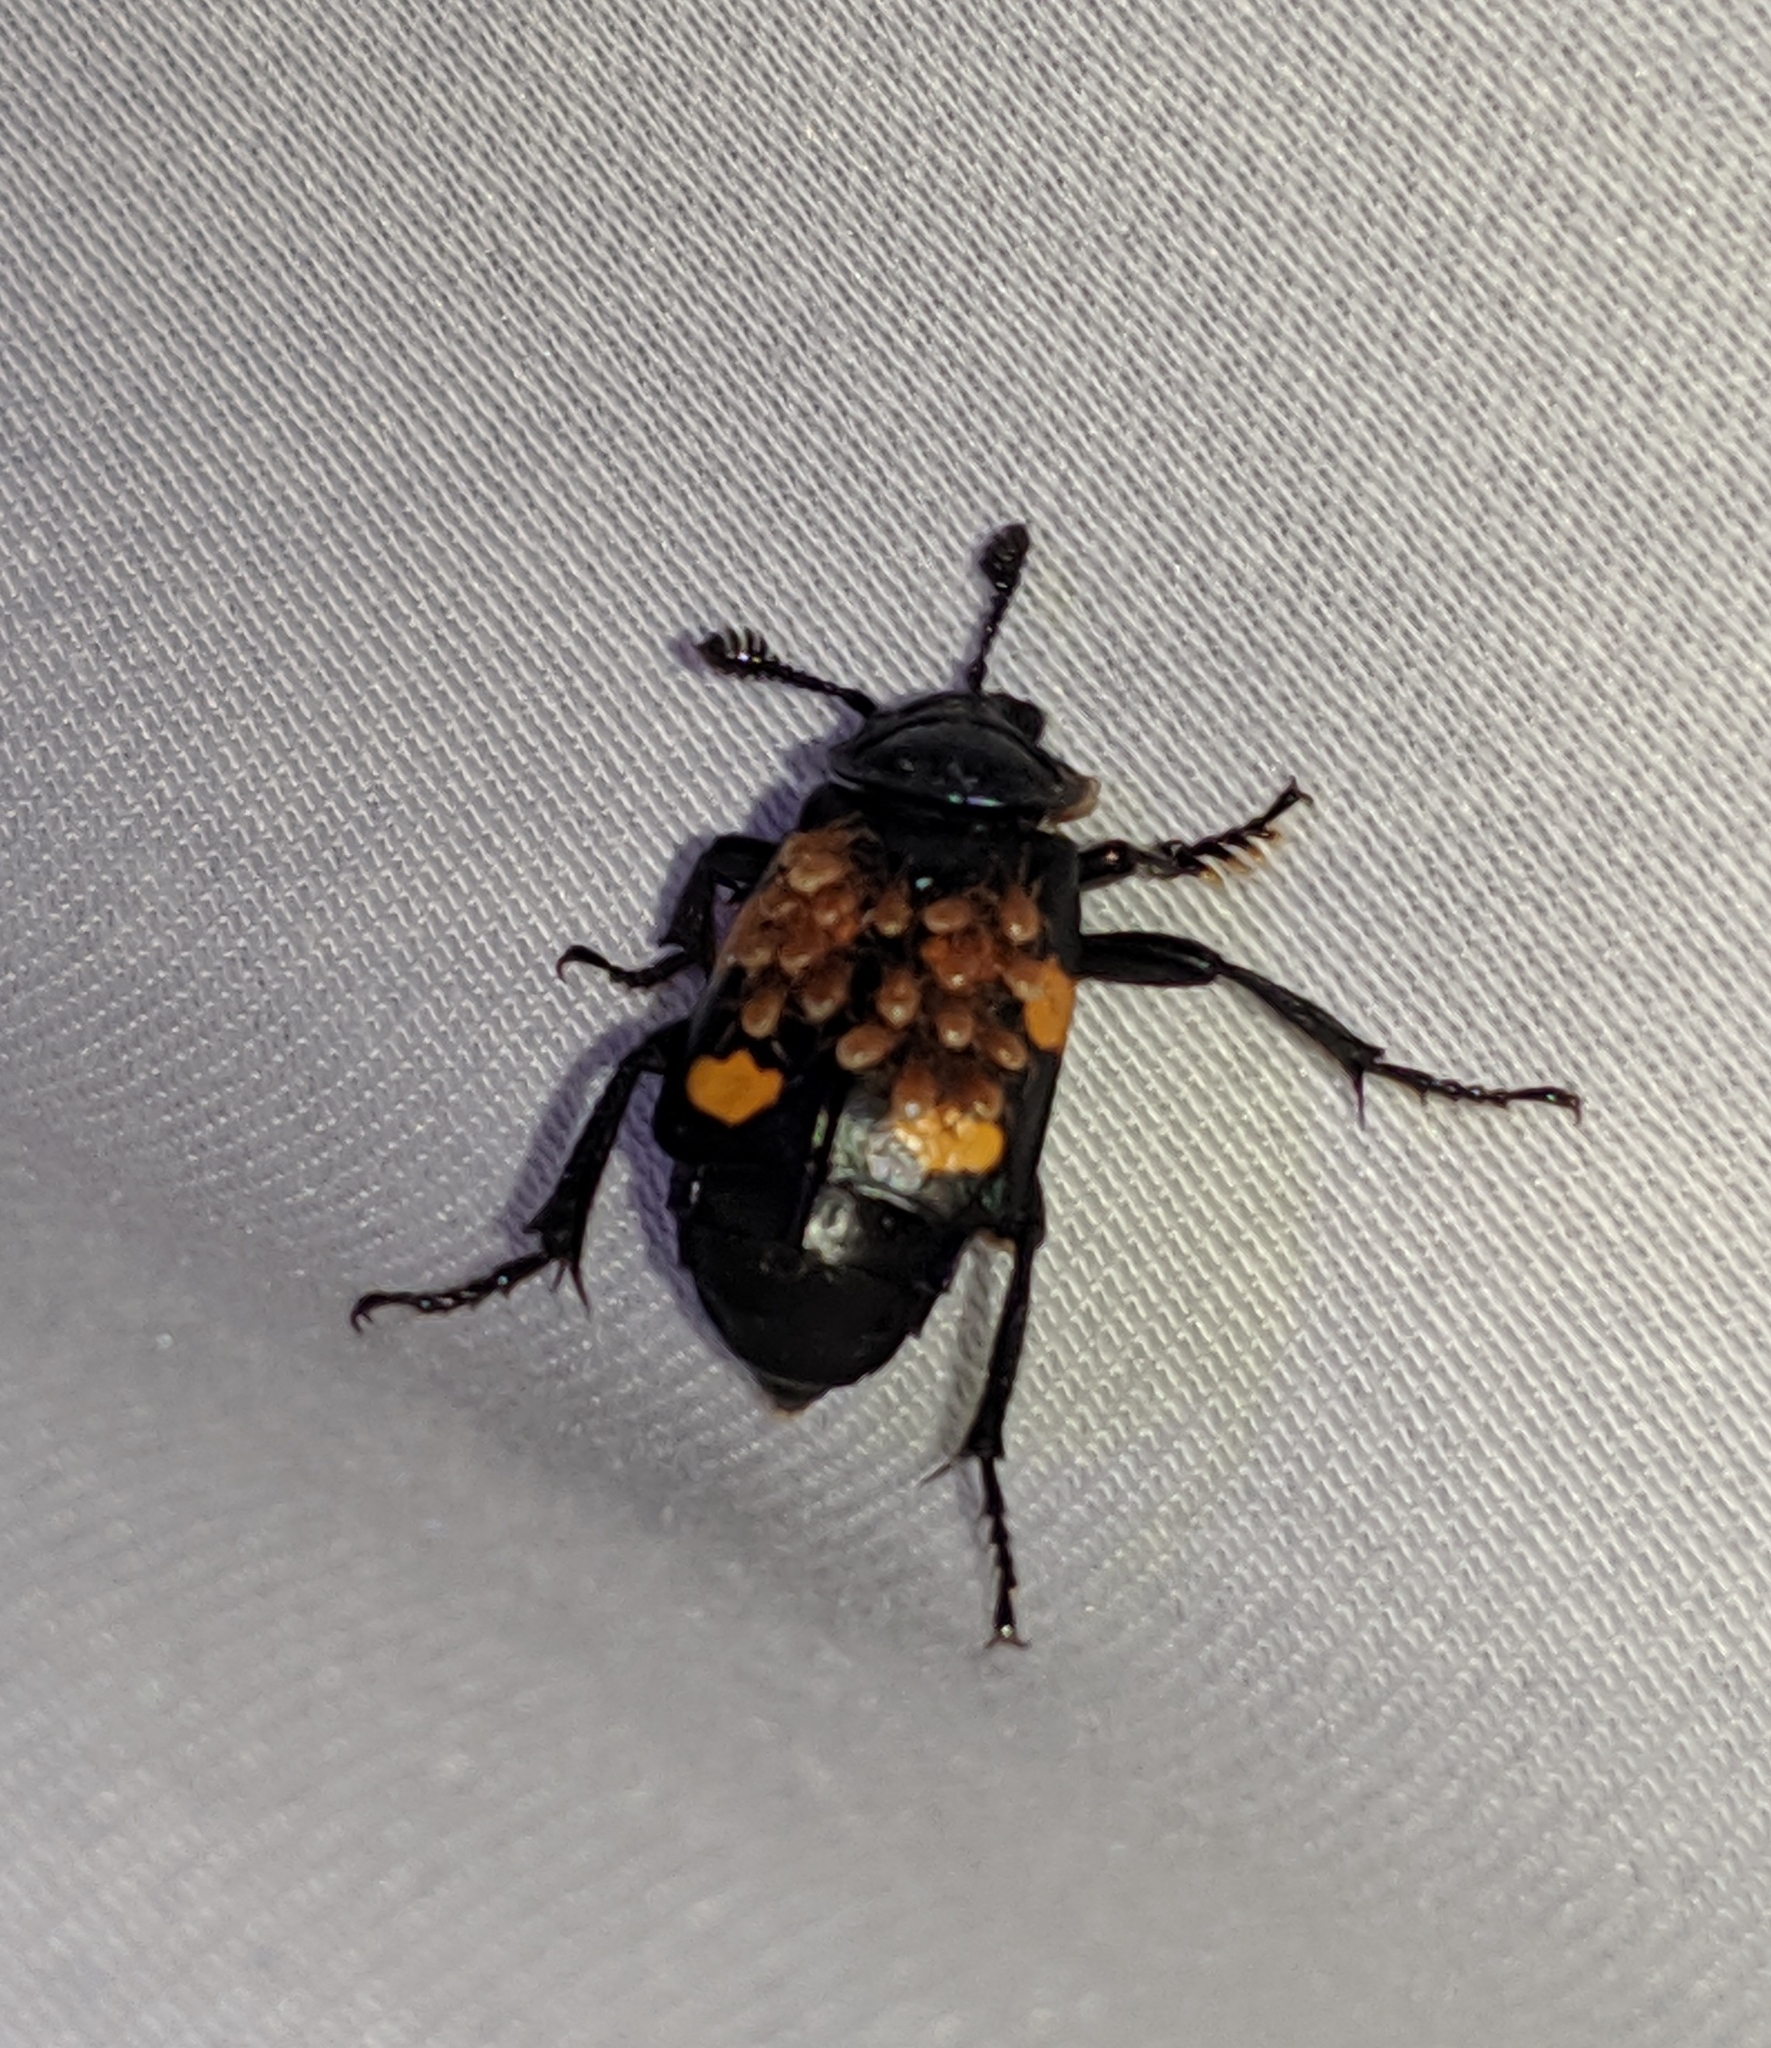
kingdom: Animalia
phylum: Arthropoda
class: Insecta
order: Coleoptera
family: Staphylinidae
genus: Nicrophorus
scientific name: Nicrophorus defodiens
